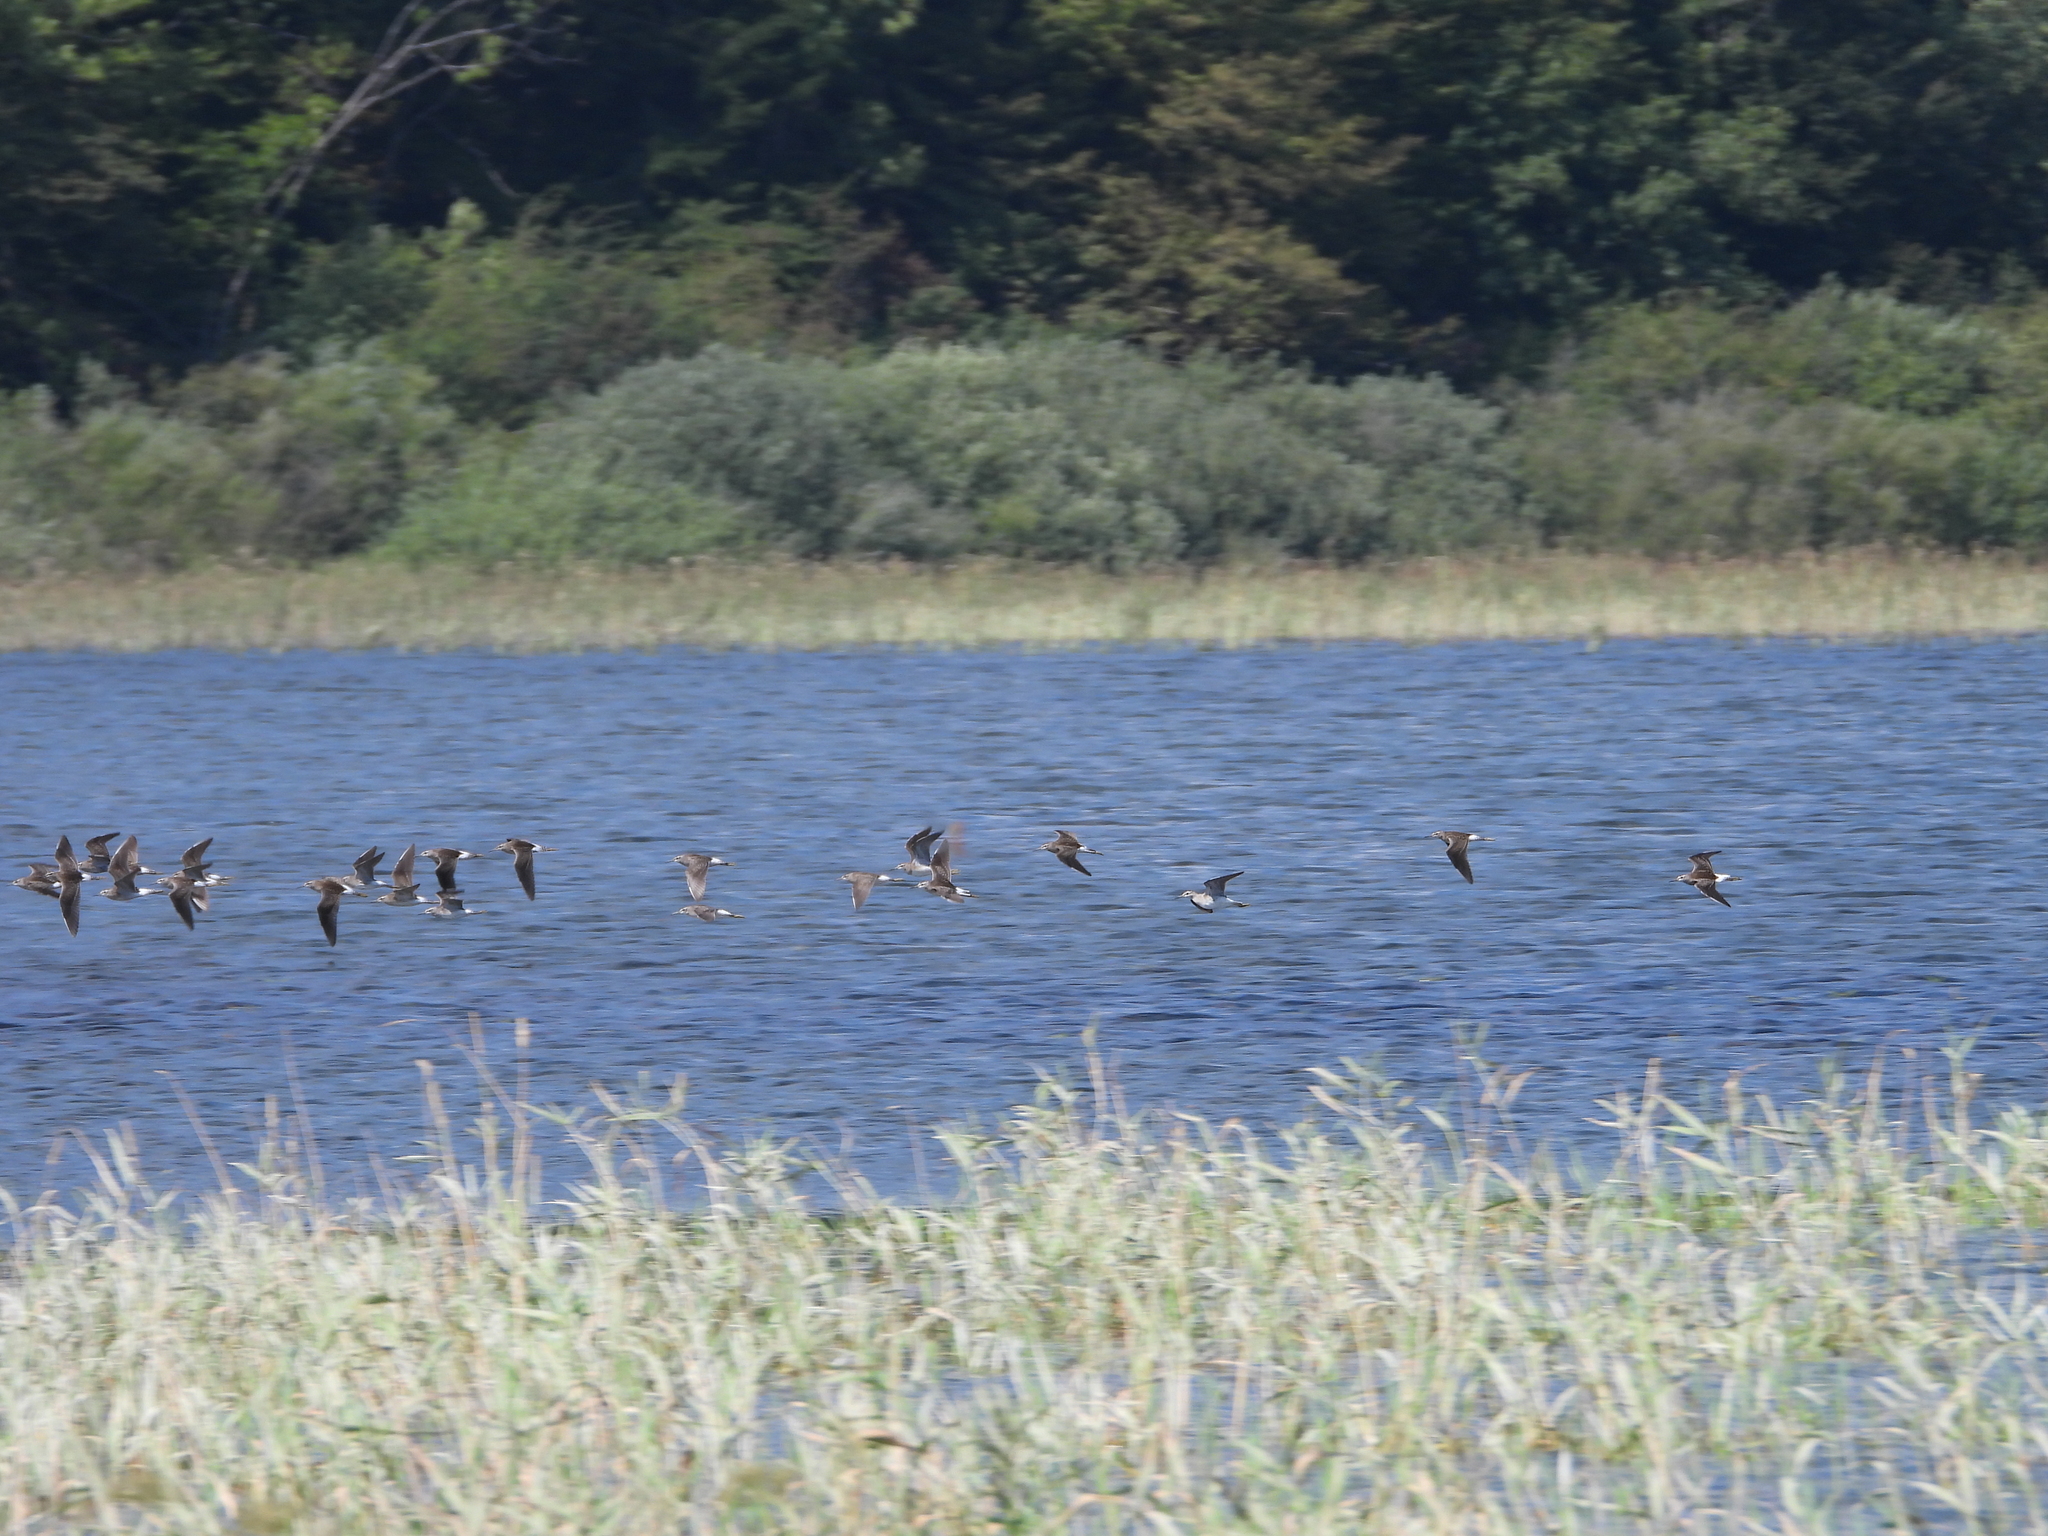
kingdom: Animalia
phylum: Chordata
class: Aves
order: Charadriiformes
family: Scolopacidae
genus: Tringa
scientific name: Tringa glareola
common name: Wood sandpiper
